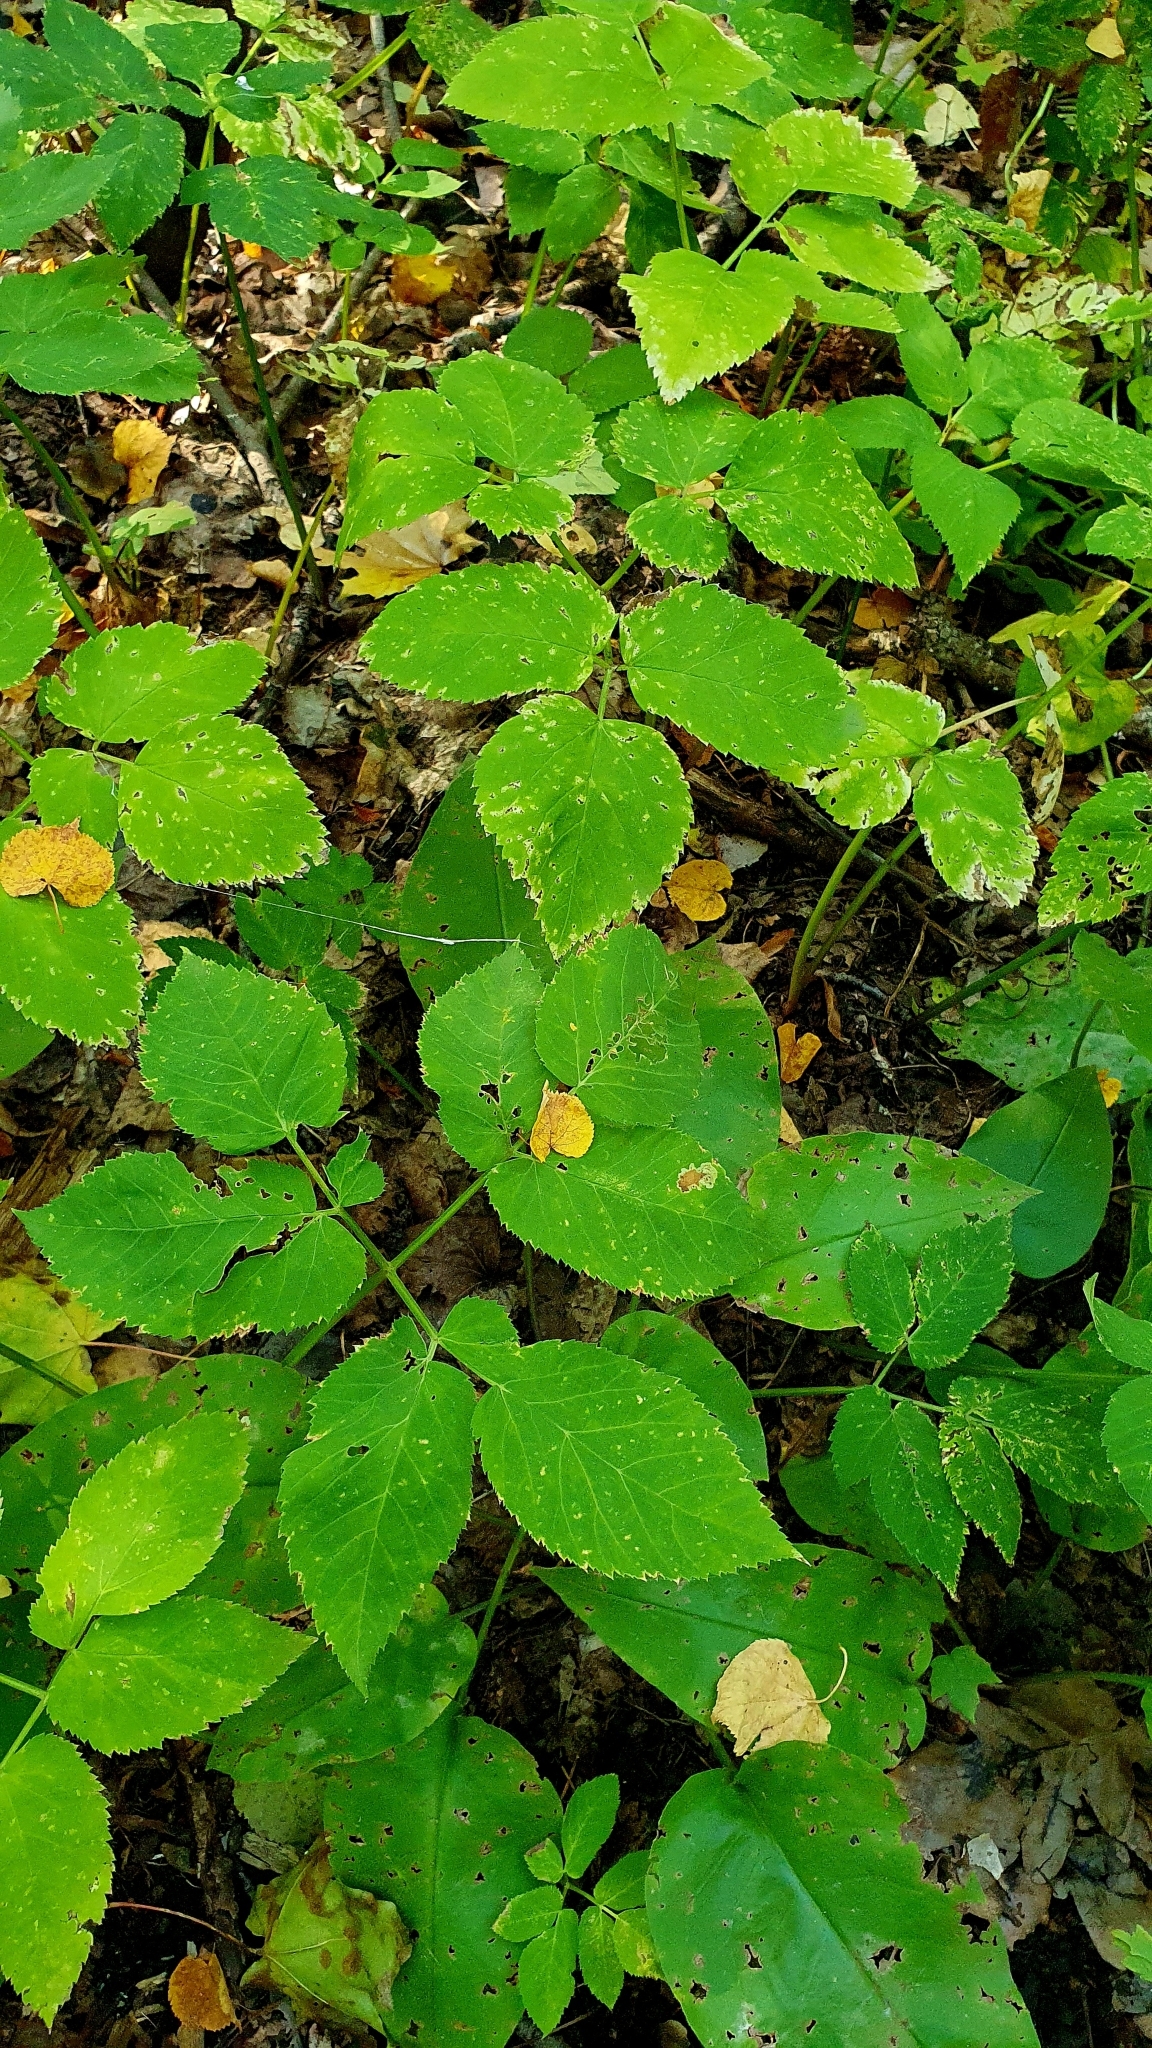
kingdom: Plantae
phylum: Tracheophyta
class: Magnoliopsida
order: Apiales
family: Apiaceae
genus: Aegopodium
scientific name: Aegopodium podagraria
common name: Ground-elder
